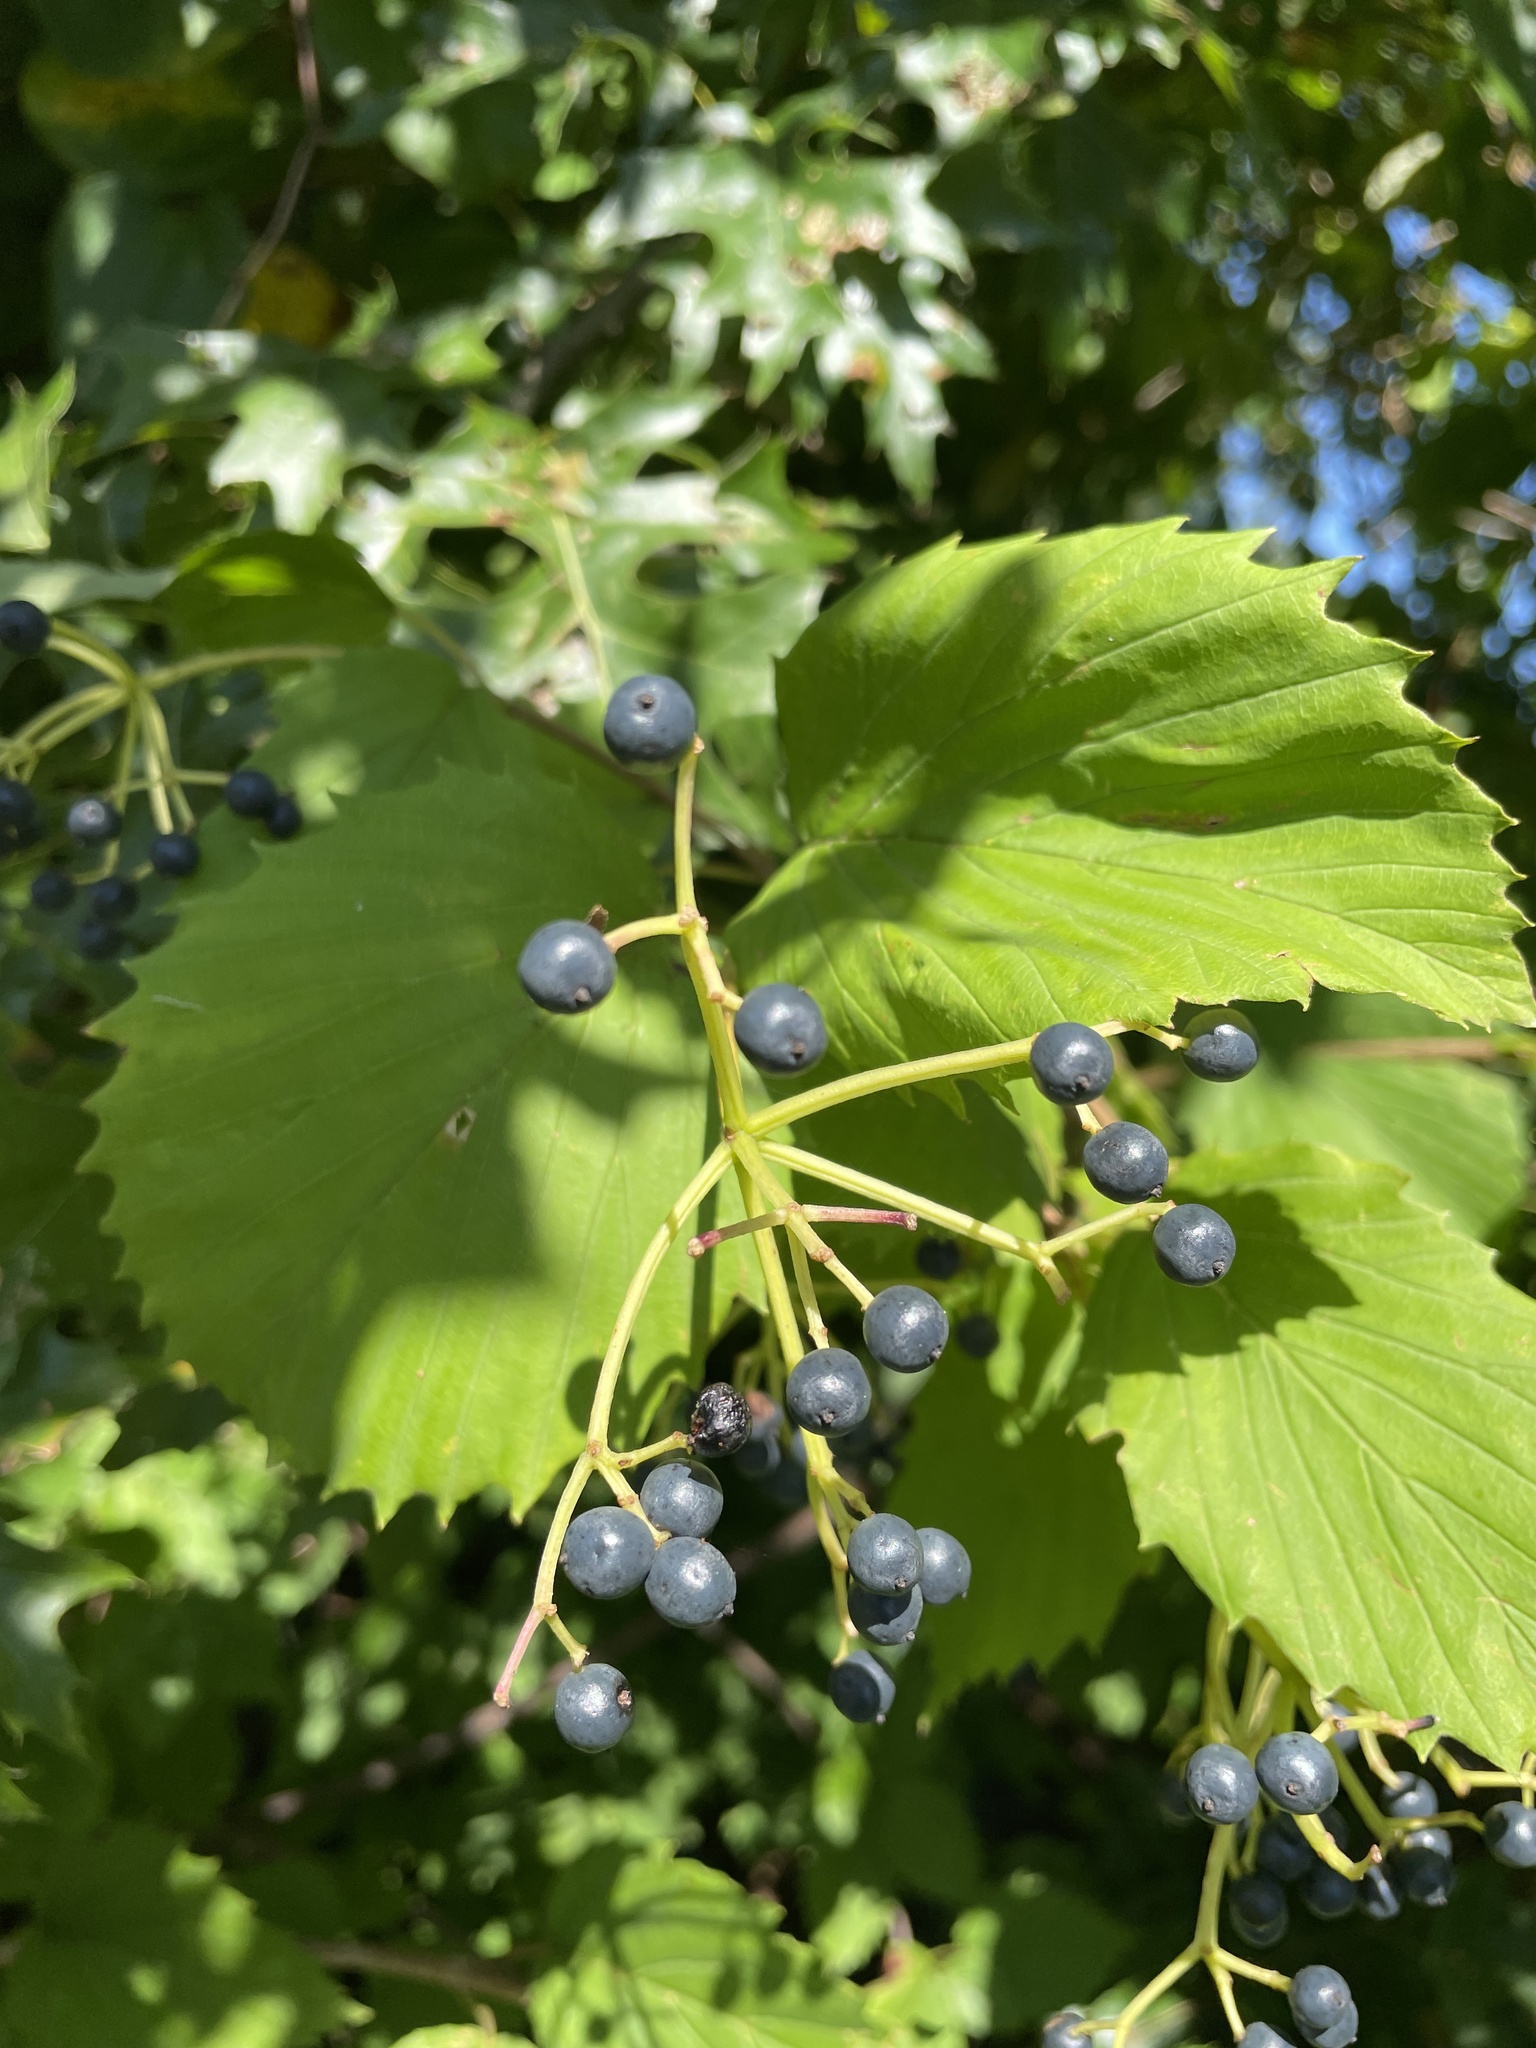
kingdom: Plantae
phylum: Tracheophyta
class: Magnoliopsida
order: Dipsacales
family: Viburnaceae
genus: Viburnum
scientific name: Viburnum dentatum
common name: Arrow-wood
